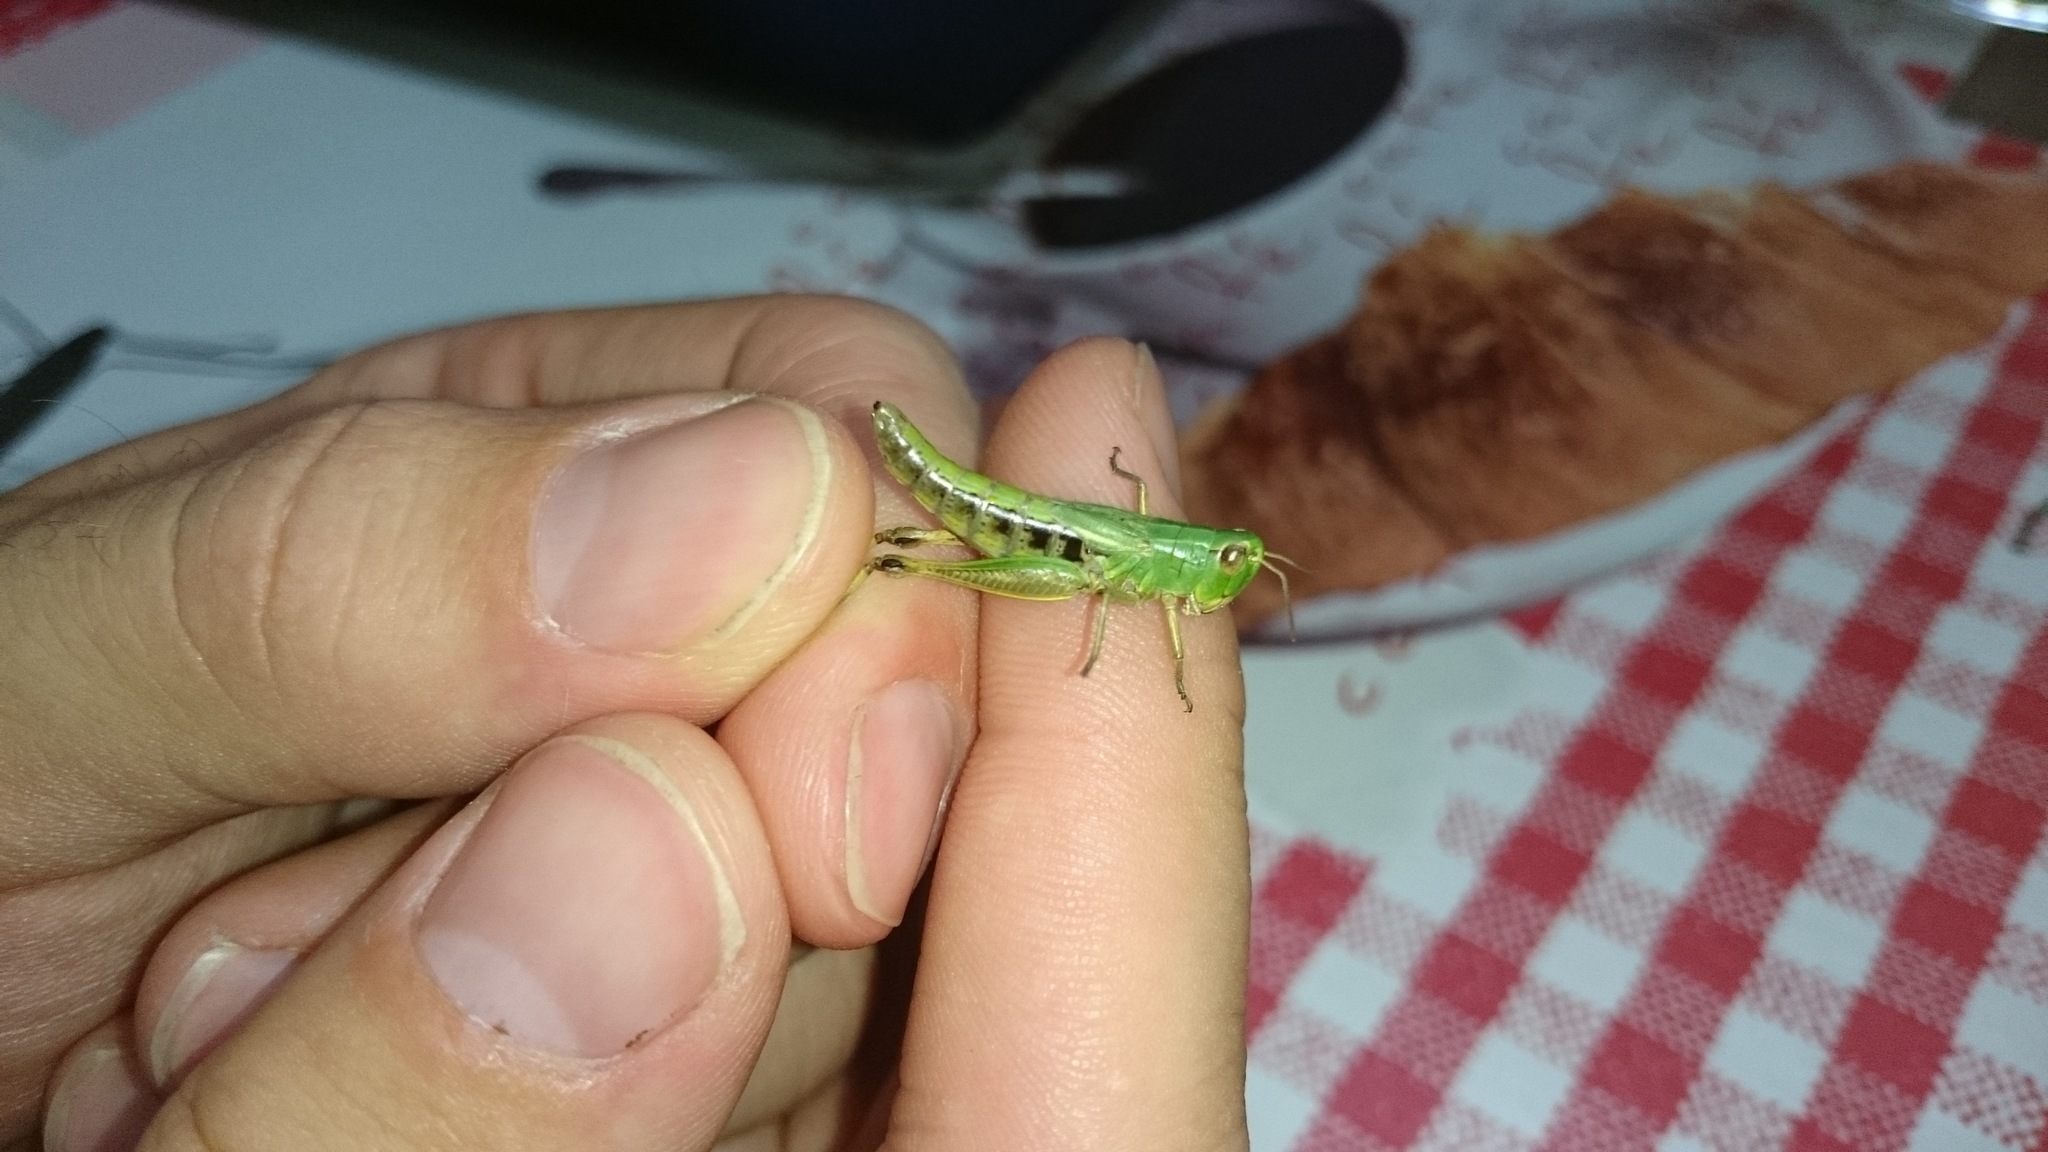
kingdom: Animalia
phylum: Arthropoda
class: Insecta
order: Orthoptera
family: Acrididae
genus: Pseudochorthippus
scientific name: Pseudochorthippus parallelus
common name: Meadow grasshopper
